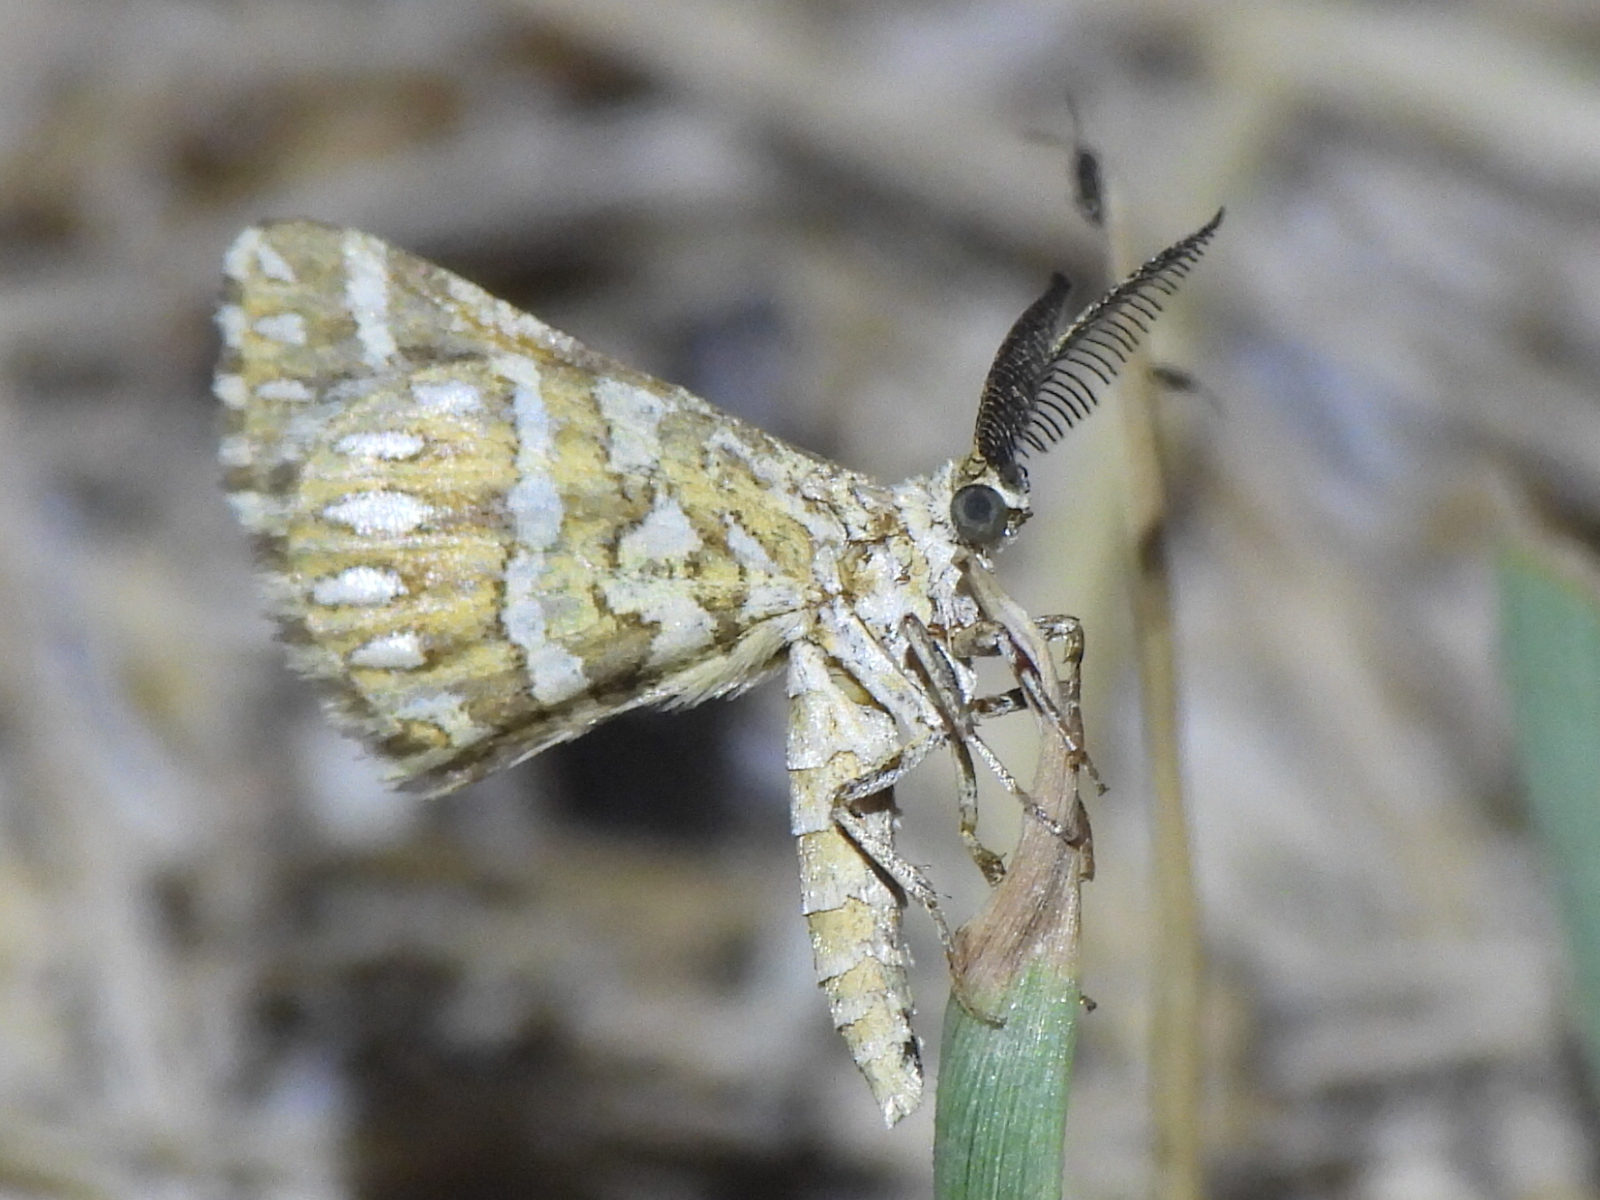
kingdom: Animalia
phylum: Arthropoda
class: Insecta
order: Lepidoptera
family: Geometridae
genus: Narraga
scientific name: Narraga fimetaria
